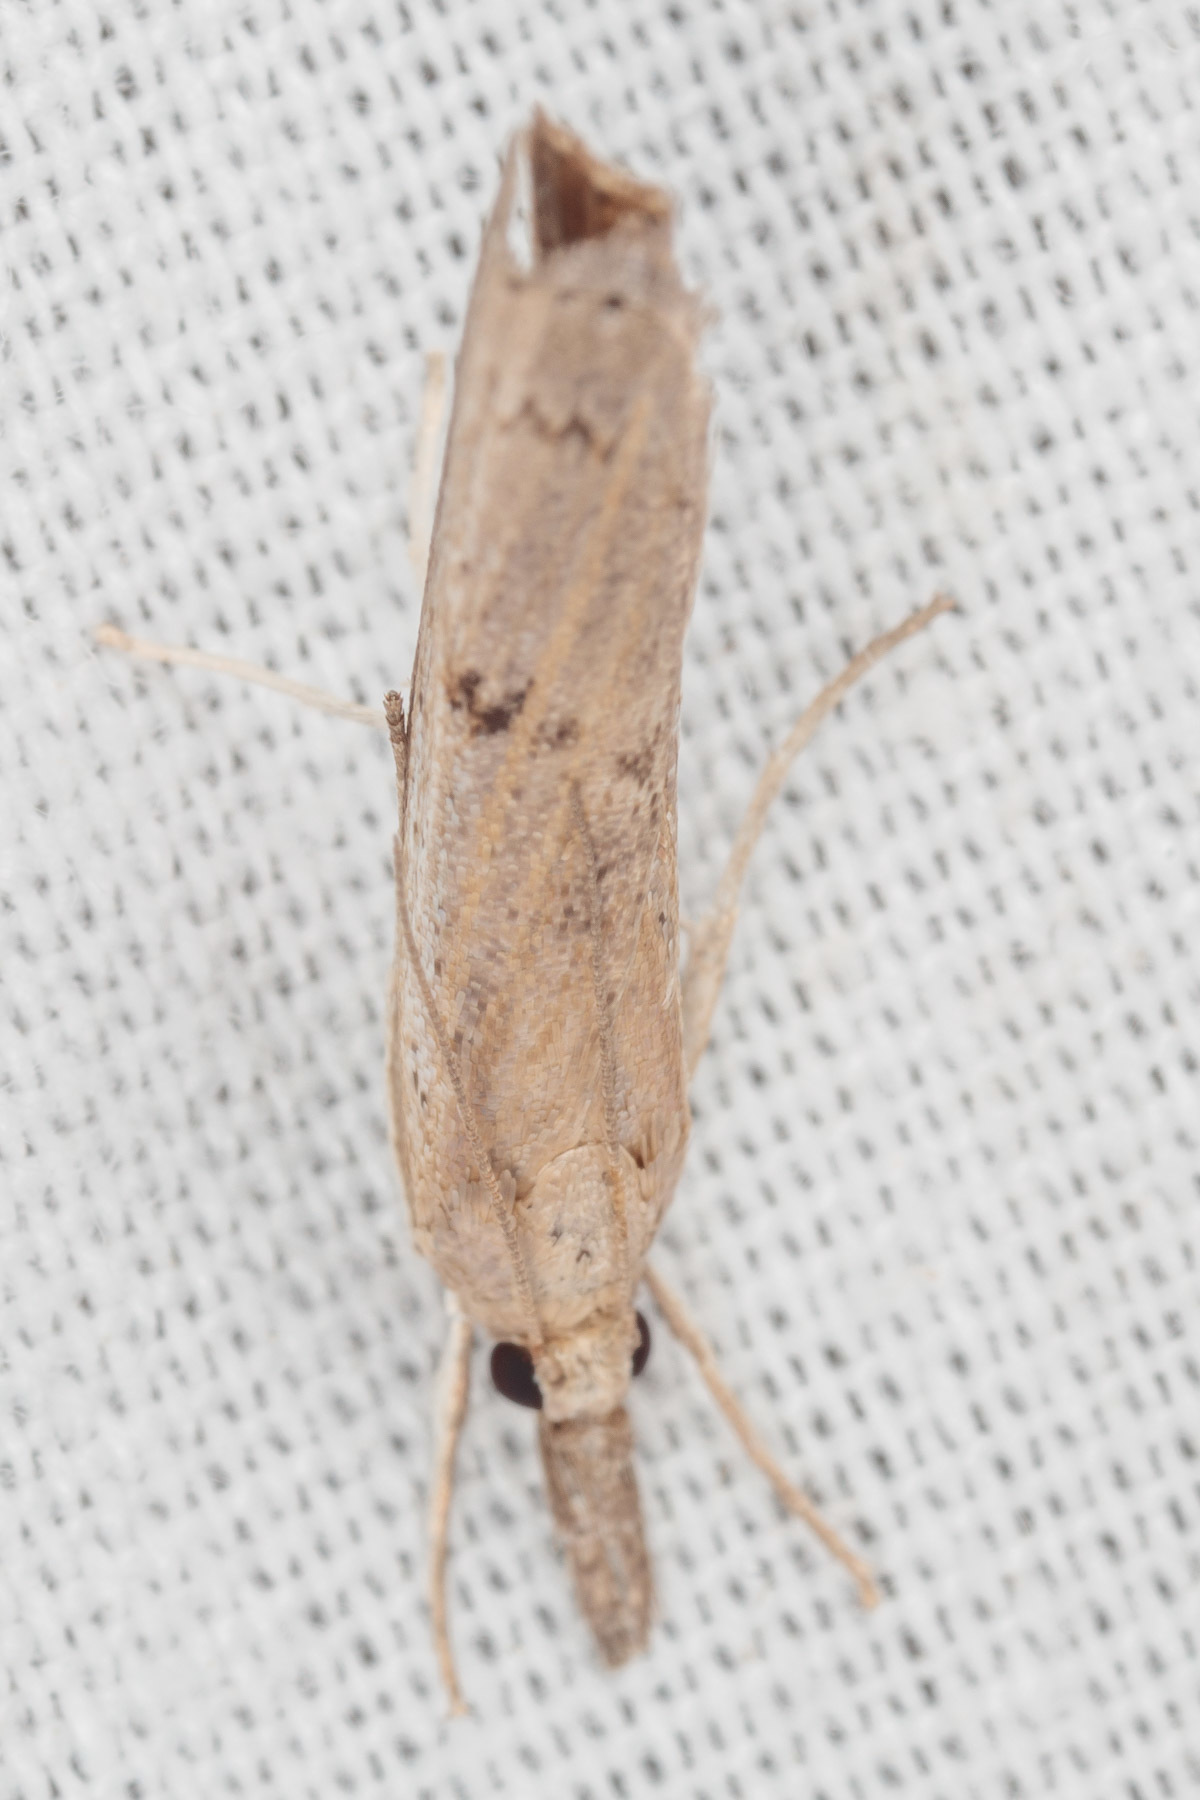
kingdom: Animalia
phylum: Arthropoda
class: Insecta
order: Lepidoptera
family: Crambidae
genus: Parapediasia
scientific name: Parapediasia teterellus
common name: Bluegrass webworm moth
